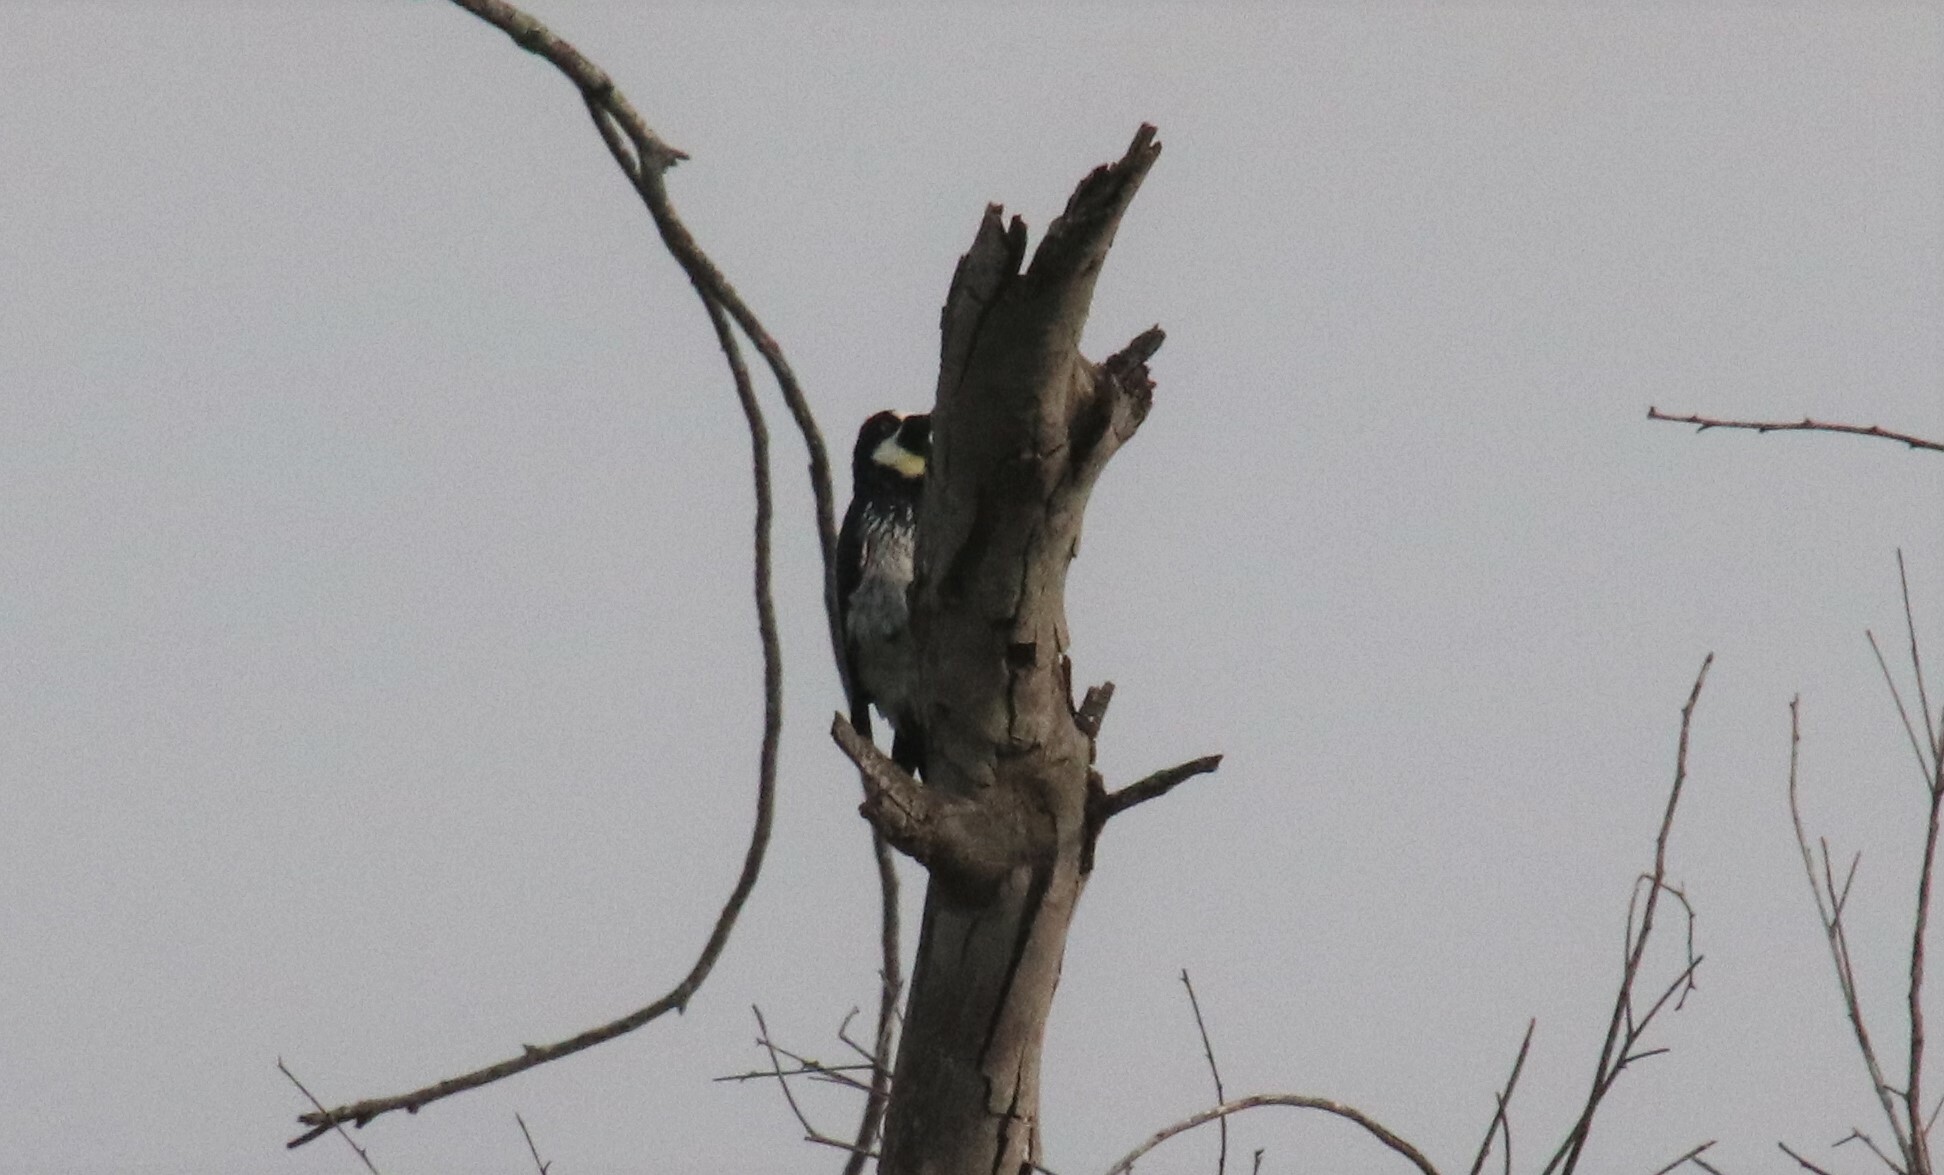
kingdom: Animalia
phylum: Chordata
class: Aves
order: Piciformes
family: Picidae
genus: Melanerpes
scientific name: Melanerpes formicivorus
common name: Acorn woodpecker
